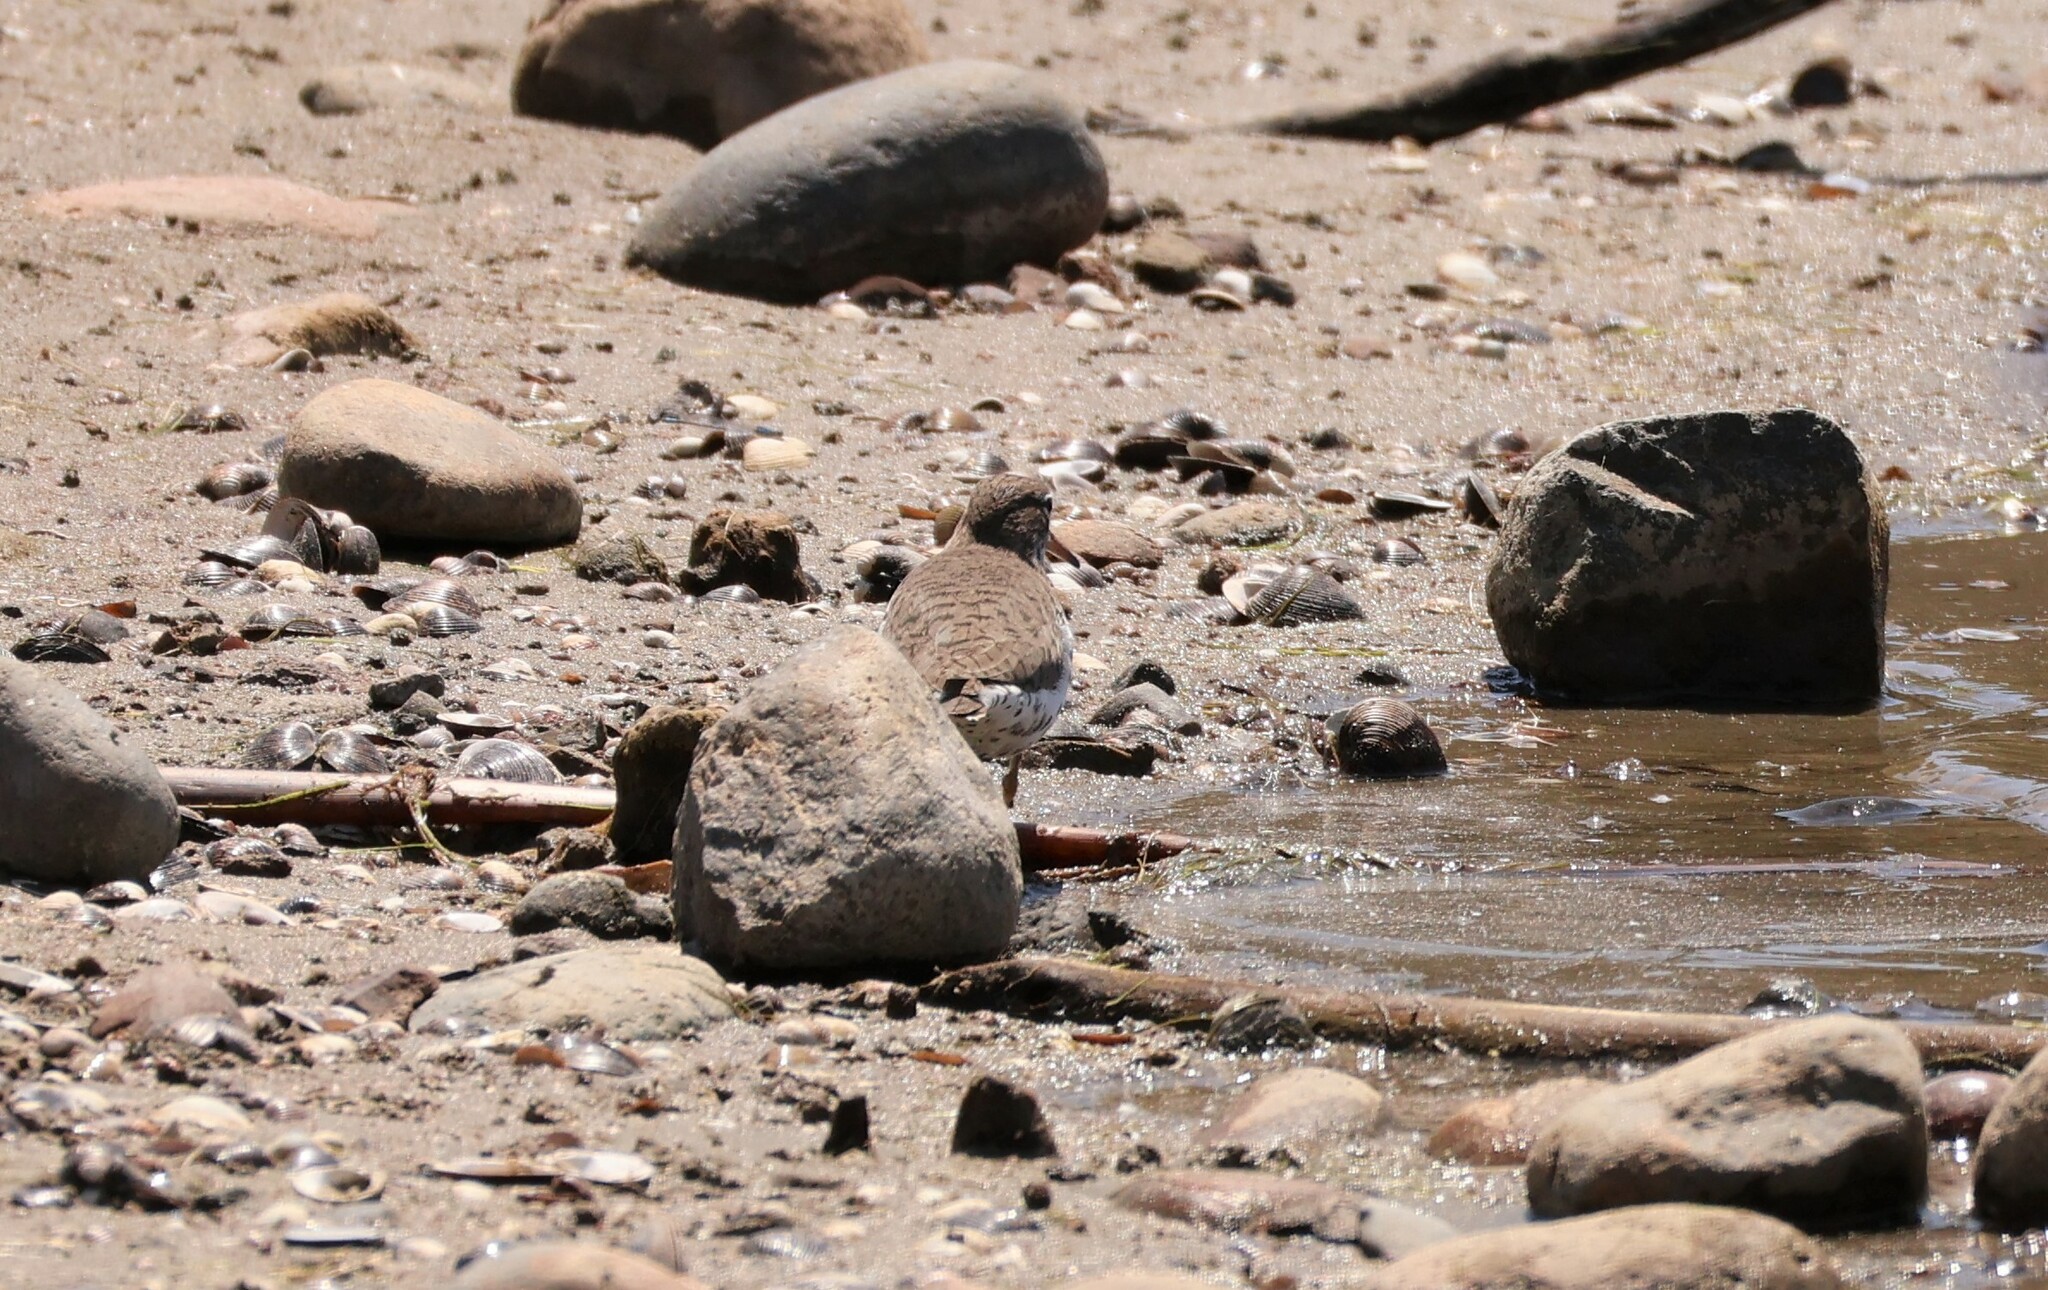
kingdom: Animalia
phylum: Chordata
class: Aves
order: Charadriiformes
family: Scolopacidae
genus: Actitis
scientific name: Actitis macularius
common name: Spotted sandpiper
